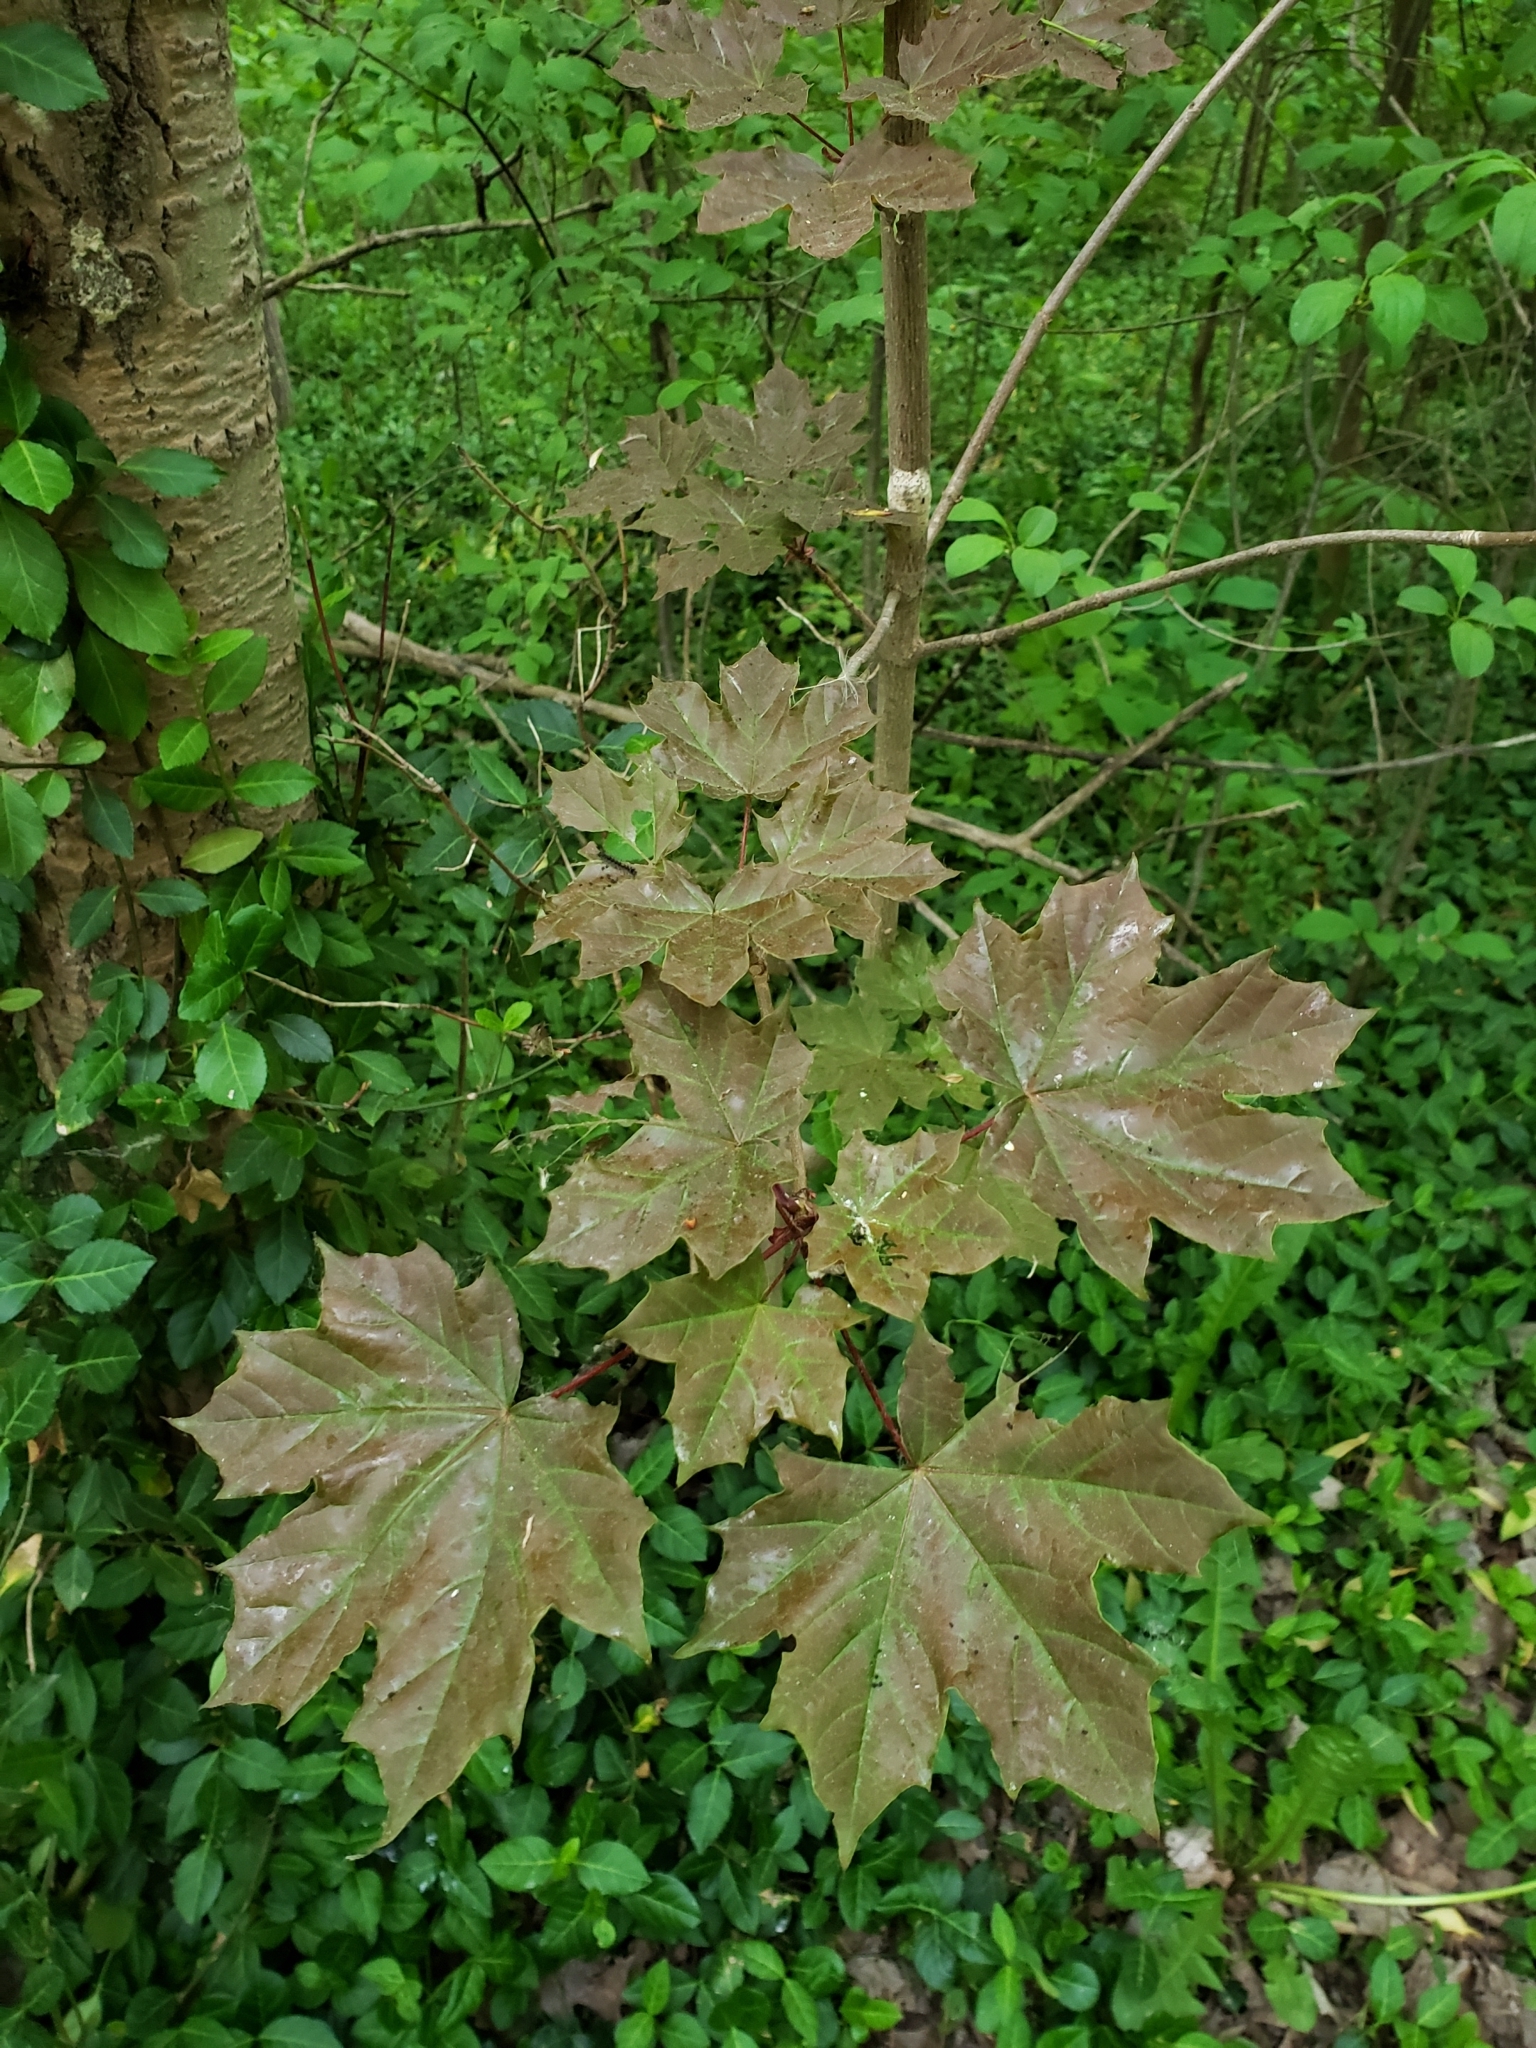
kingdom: Plantae
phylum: Tracheophyta
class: Magnoliopsida
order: Sapindales
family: Sapindaceae
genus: Acer
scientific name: Acer platanoides
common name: Norway maple
